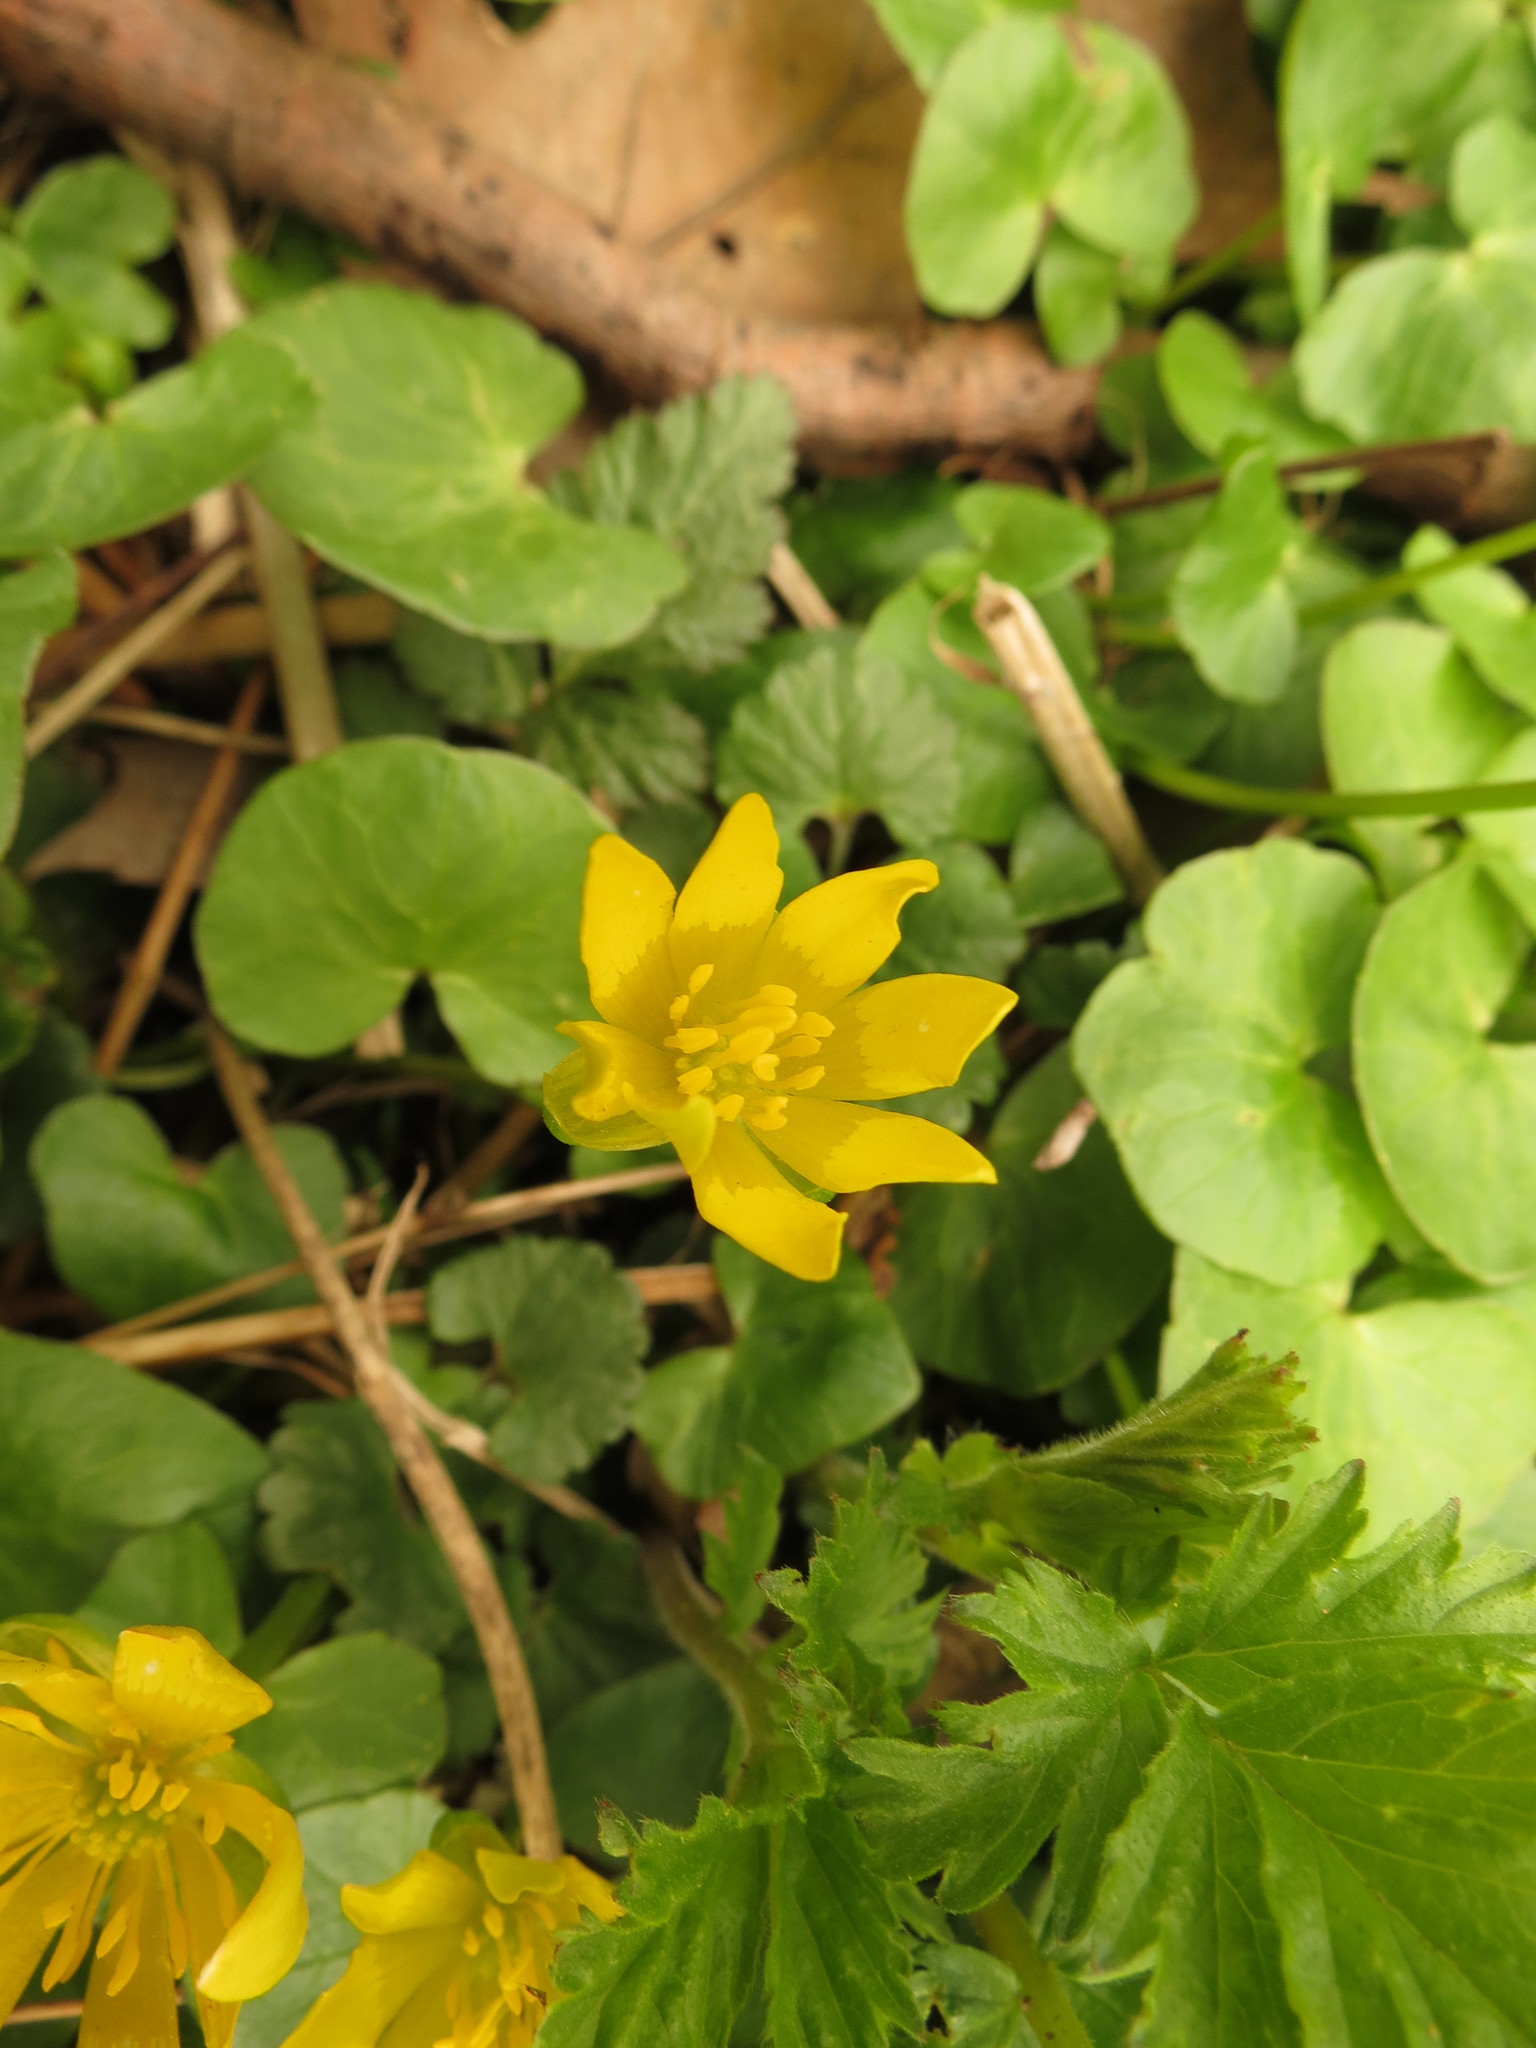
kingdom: Plantae
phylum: Tracheophyta
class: Magnoliopsida
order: Ranunculales
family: Ranunculaceae
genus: Ficaria
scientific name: Ficaria verna
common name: Lesser celandine
